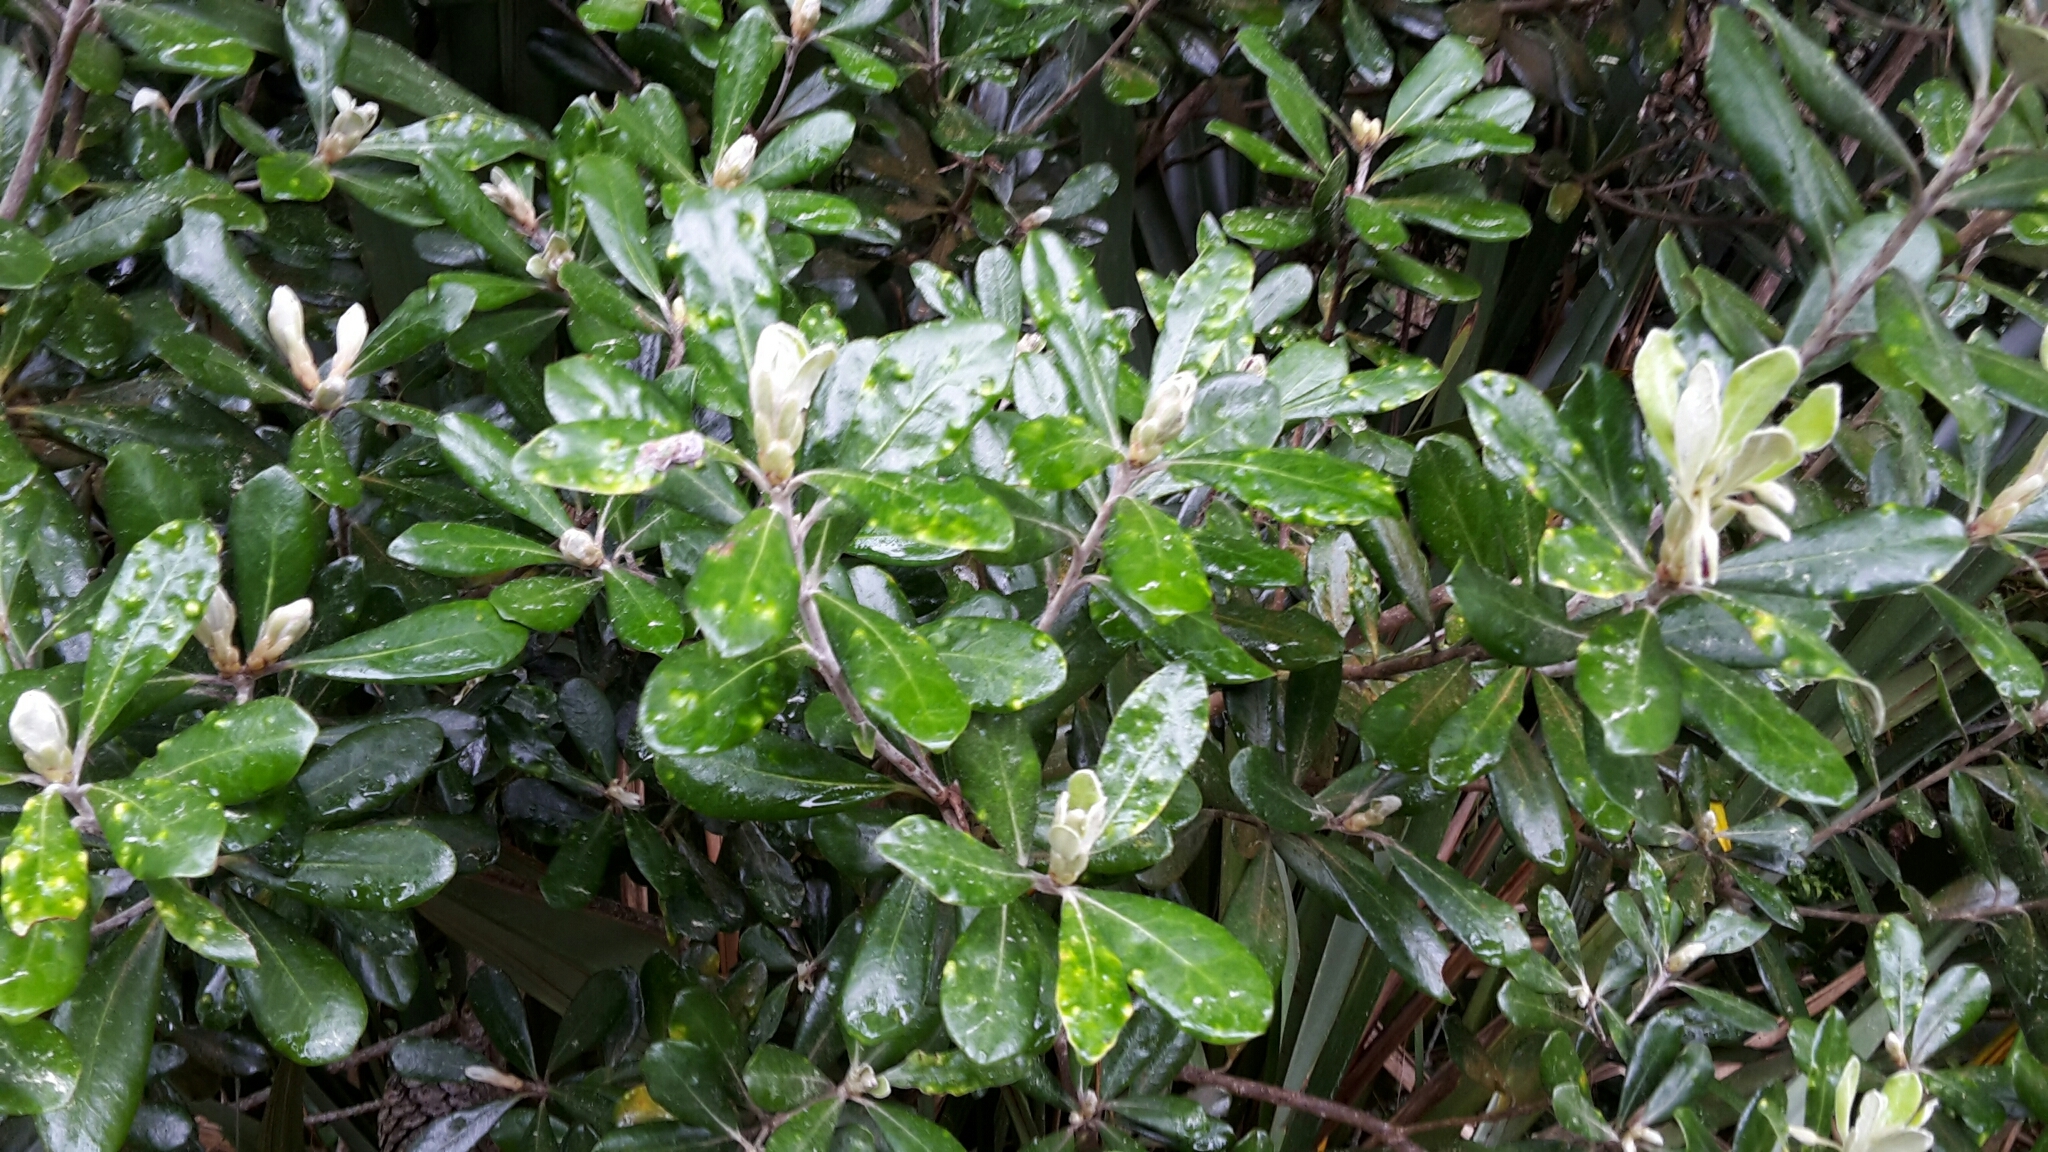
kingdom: Plantae
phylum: Tracheophyta
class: Magnoliopsida
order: Apiales
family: Pittosporaceae
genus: Pittosporum
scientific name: Pittosporum crassifolium
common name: Karo
